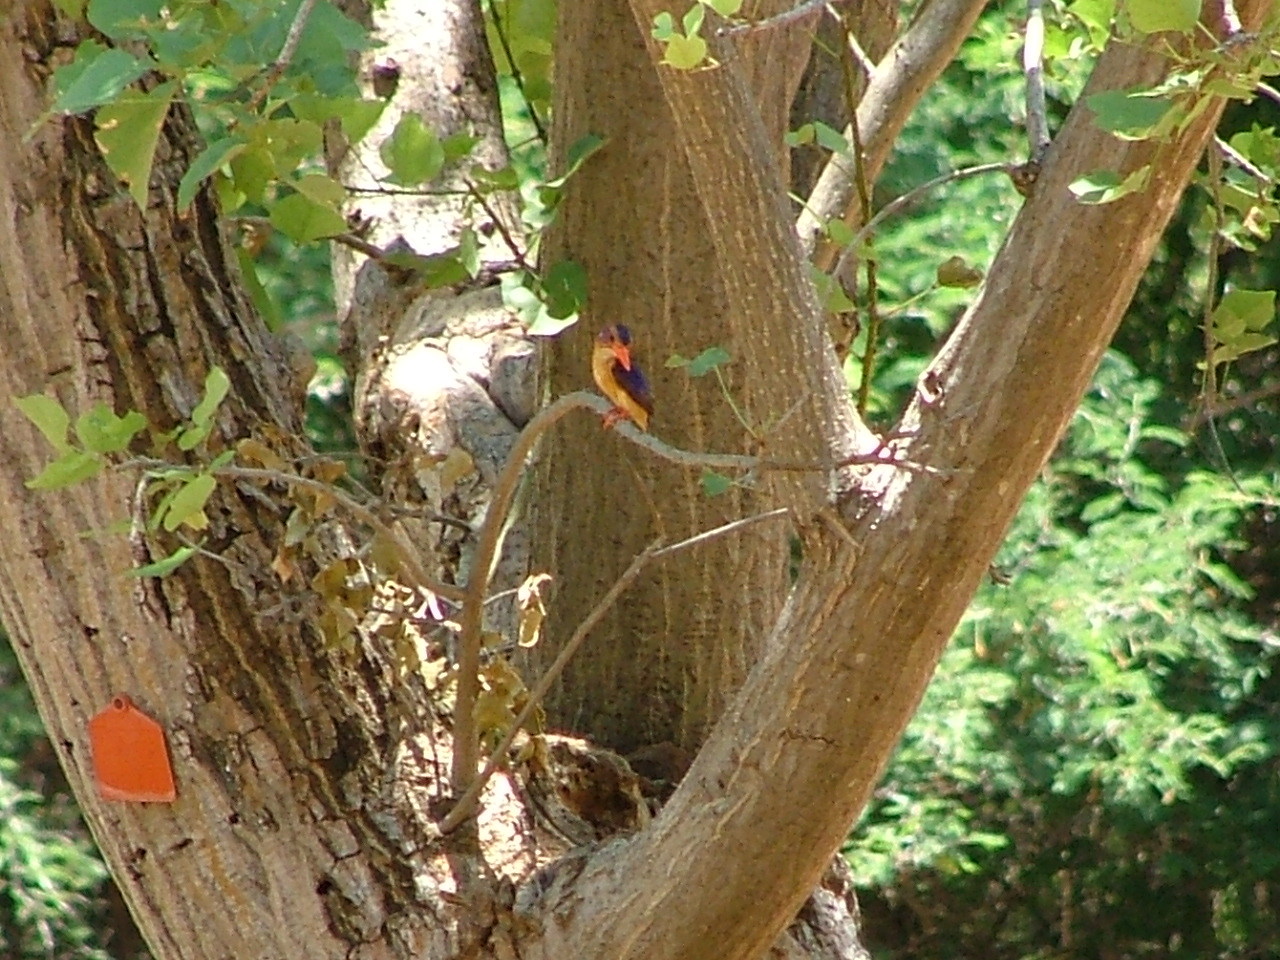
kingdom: Animalia
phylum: Chordata
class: Aves
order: Coraciiformes
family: Alcedinidae
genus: Ispidina
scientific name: Ispidina picta
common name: African pygmy-kingfisher
